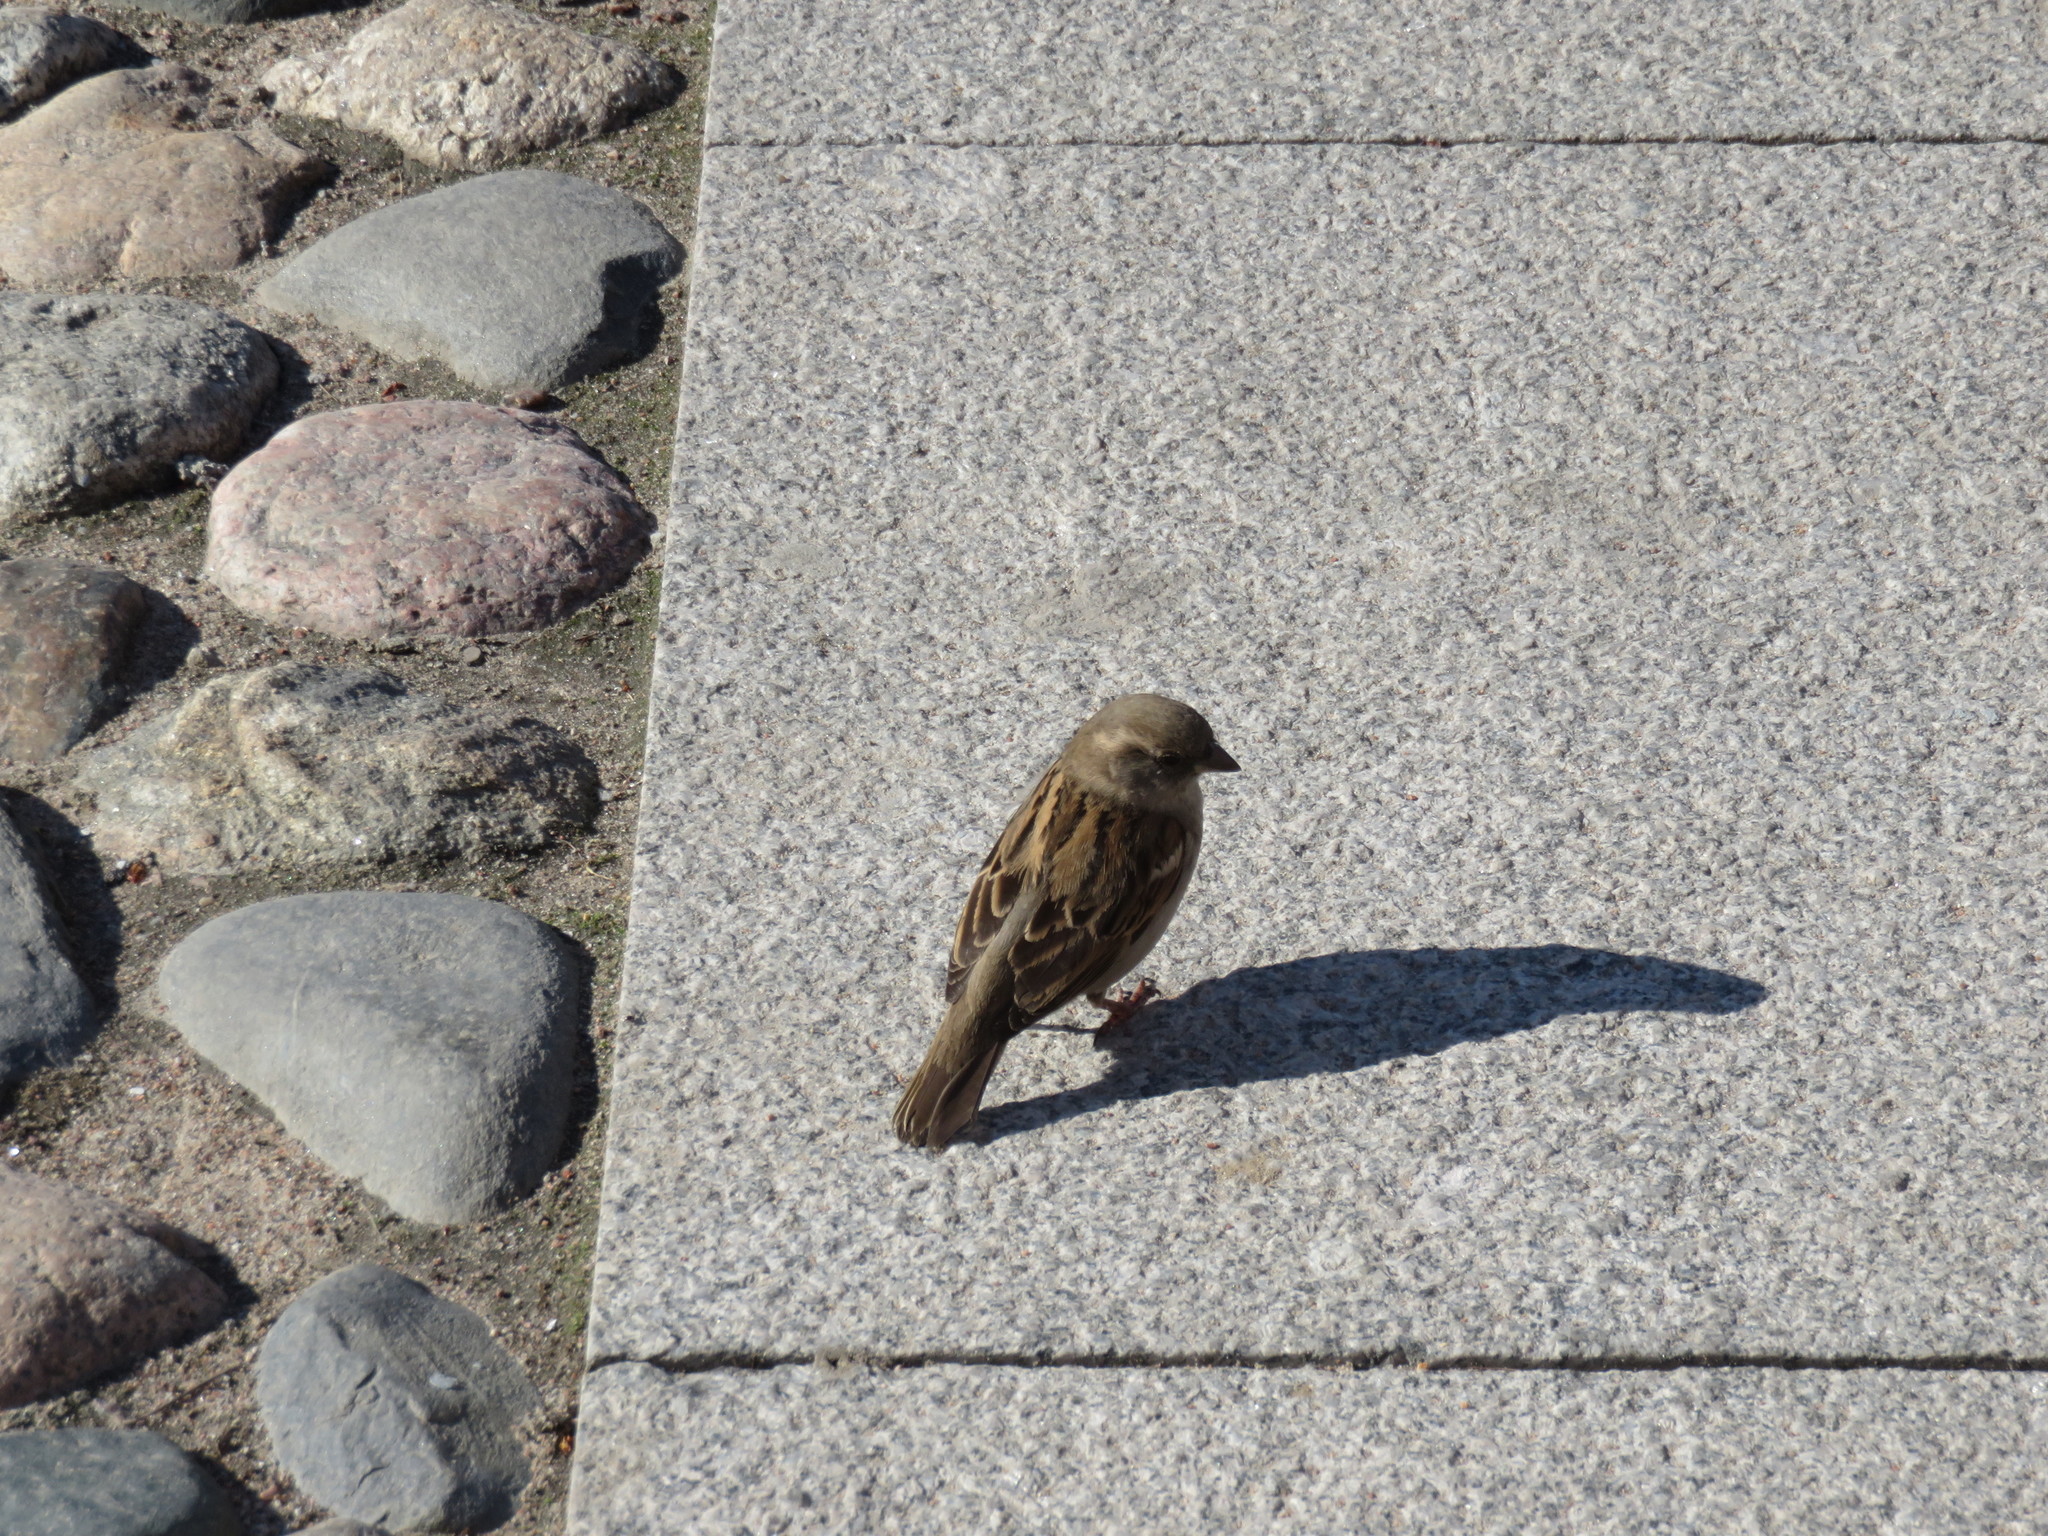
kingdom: Animalia
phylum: Chordata
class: Aves
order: Passeriformes
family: Passeridae
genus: Passer
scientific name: Passer domesticus
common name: House sparrow
